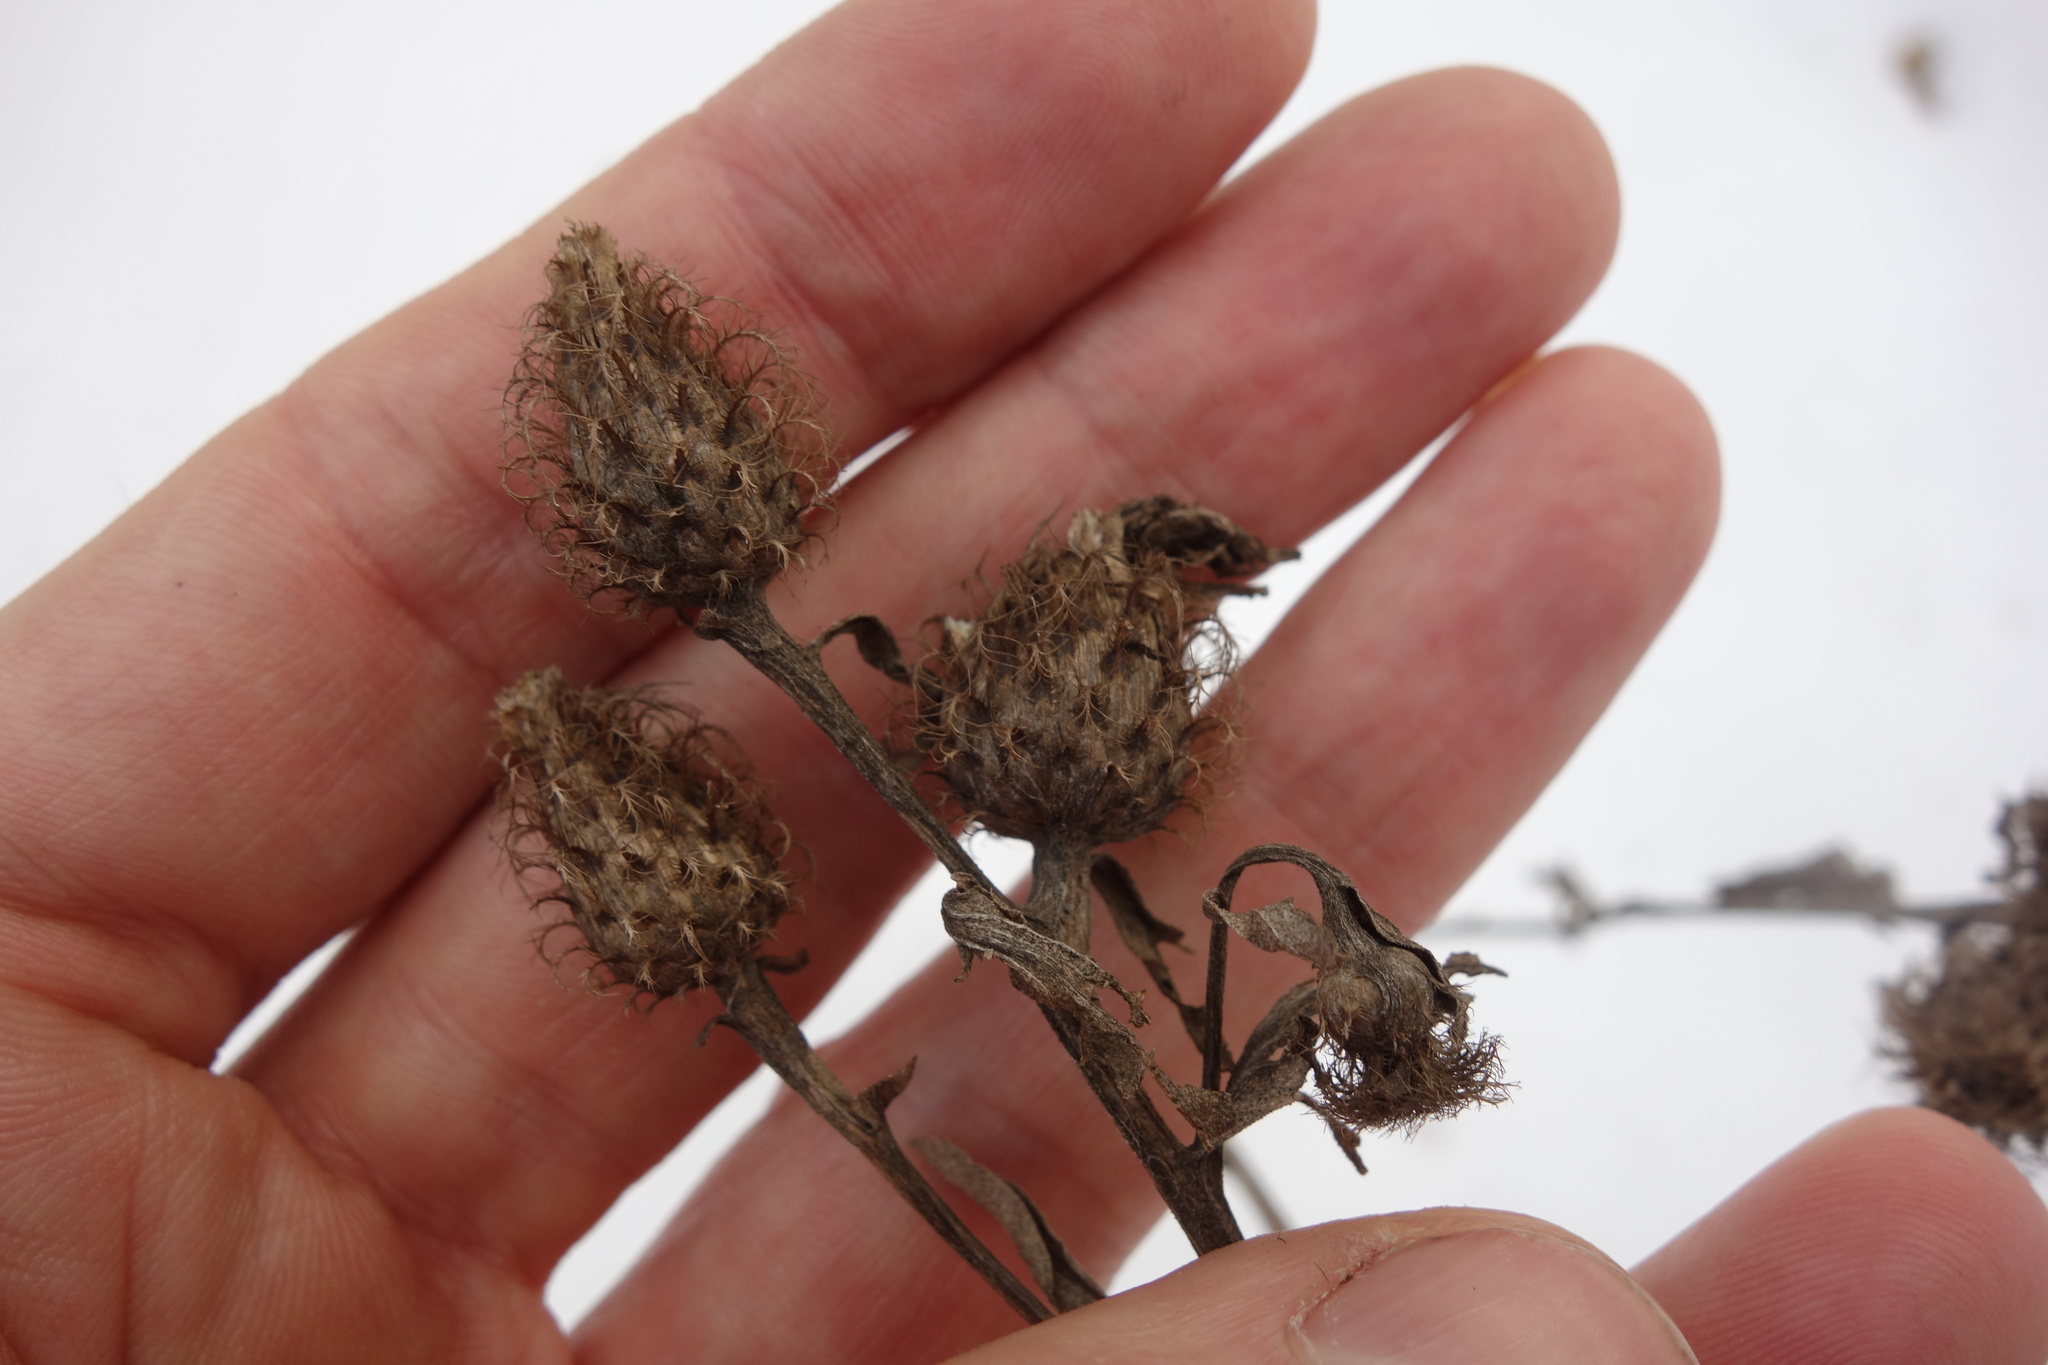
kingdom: Plantae
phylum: Tracheophyta
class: Magnoliopsida
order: Asterales
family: Asteraceae
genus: Centaurea
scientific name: Centaurea pseudophrygia
